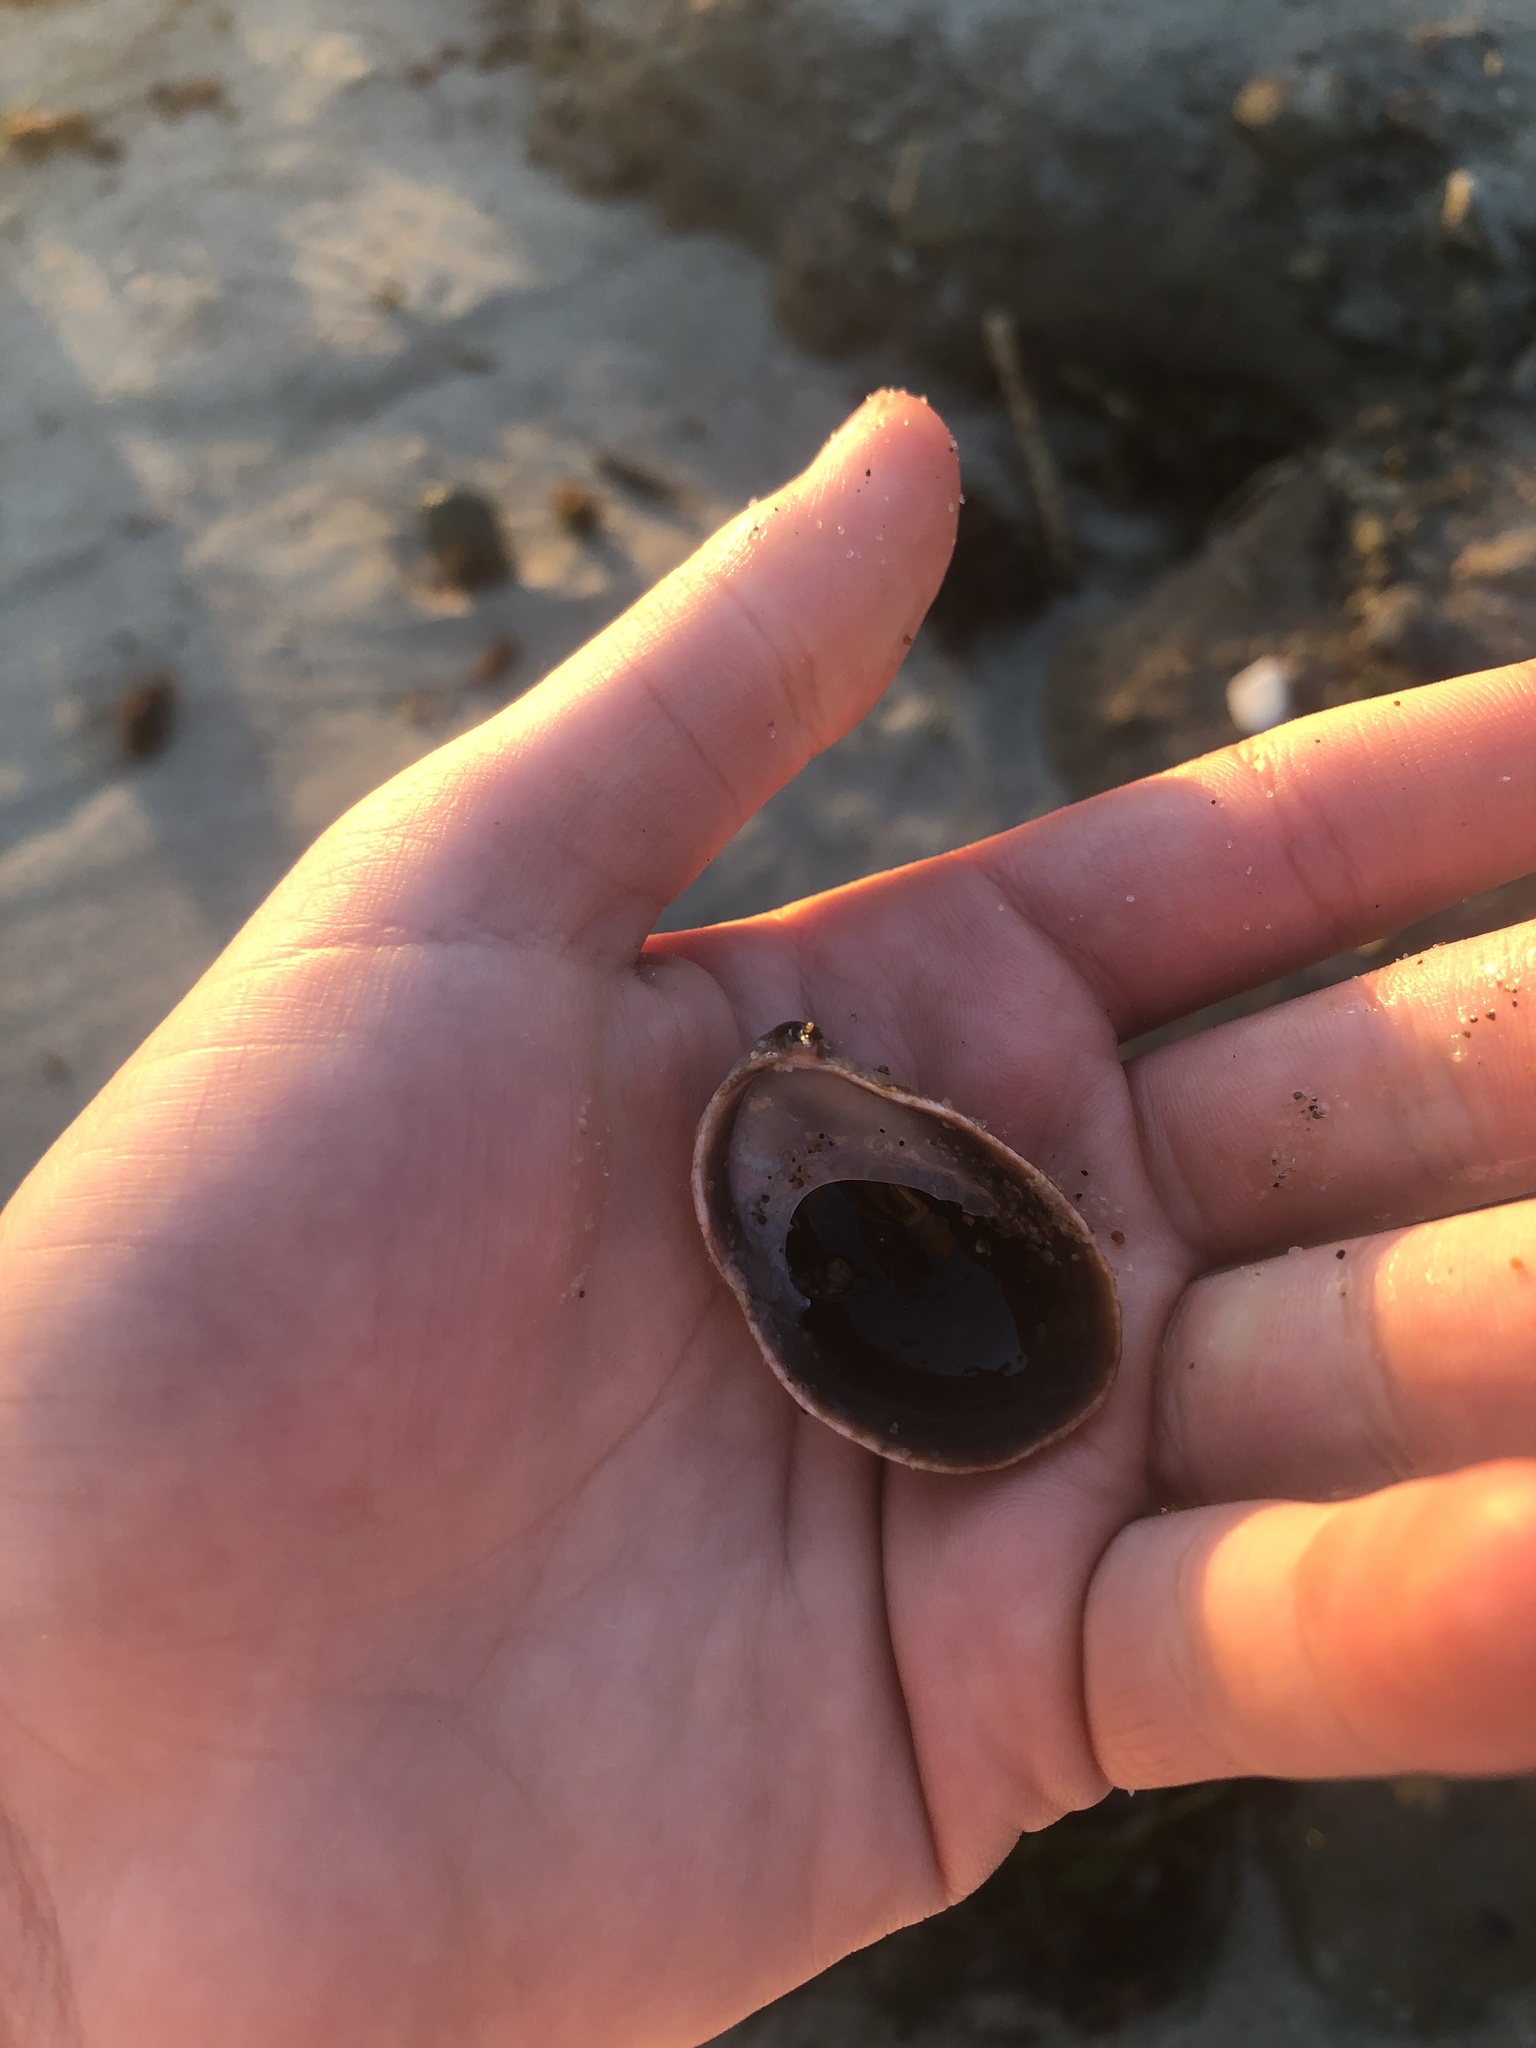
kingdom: Animalia
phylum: Mollusca
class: Gastropoda
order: Littorinimorpha
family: Calyptraeidae
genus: Crepidula
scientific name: Crepidula onyx
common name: Onyx slippersnail
